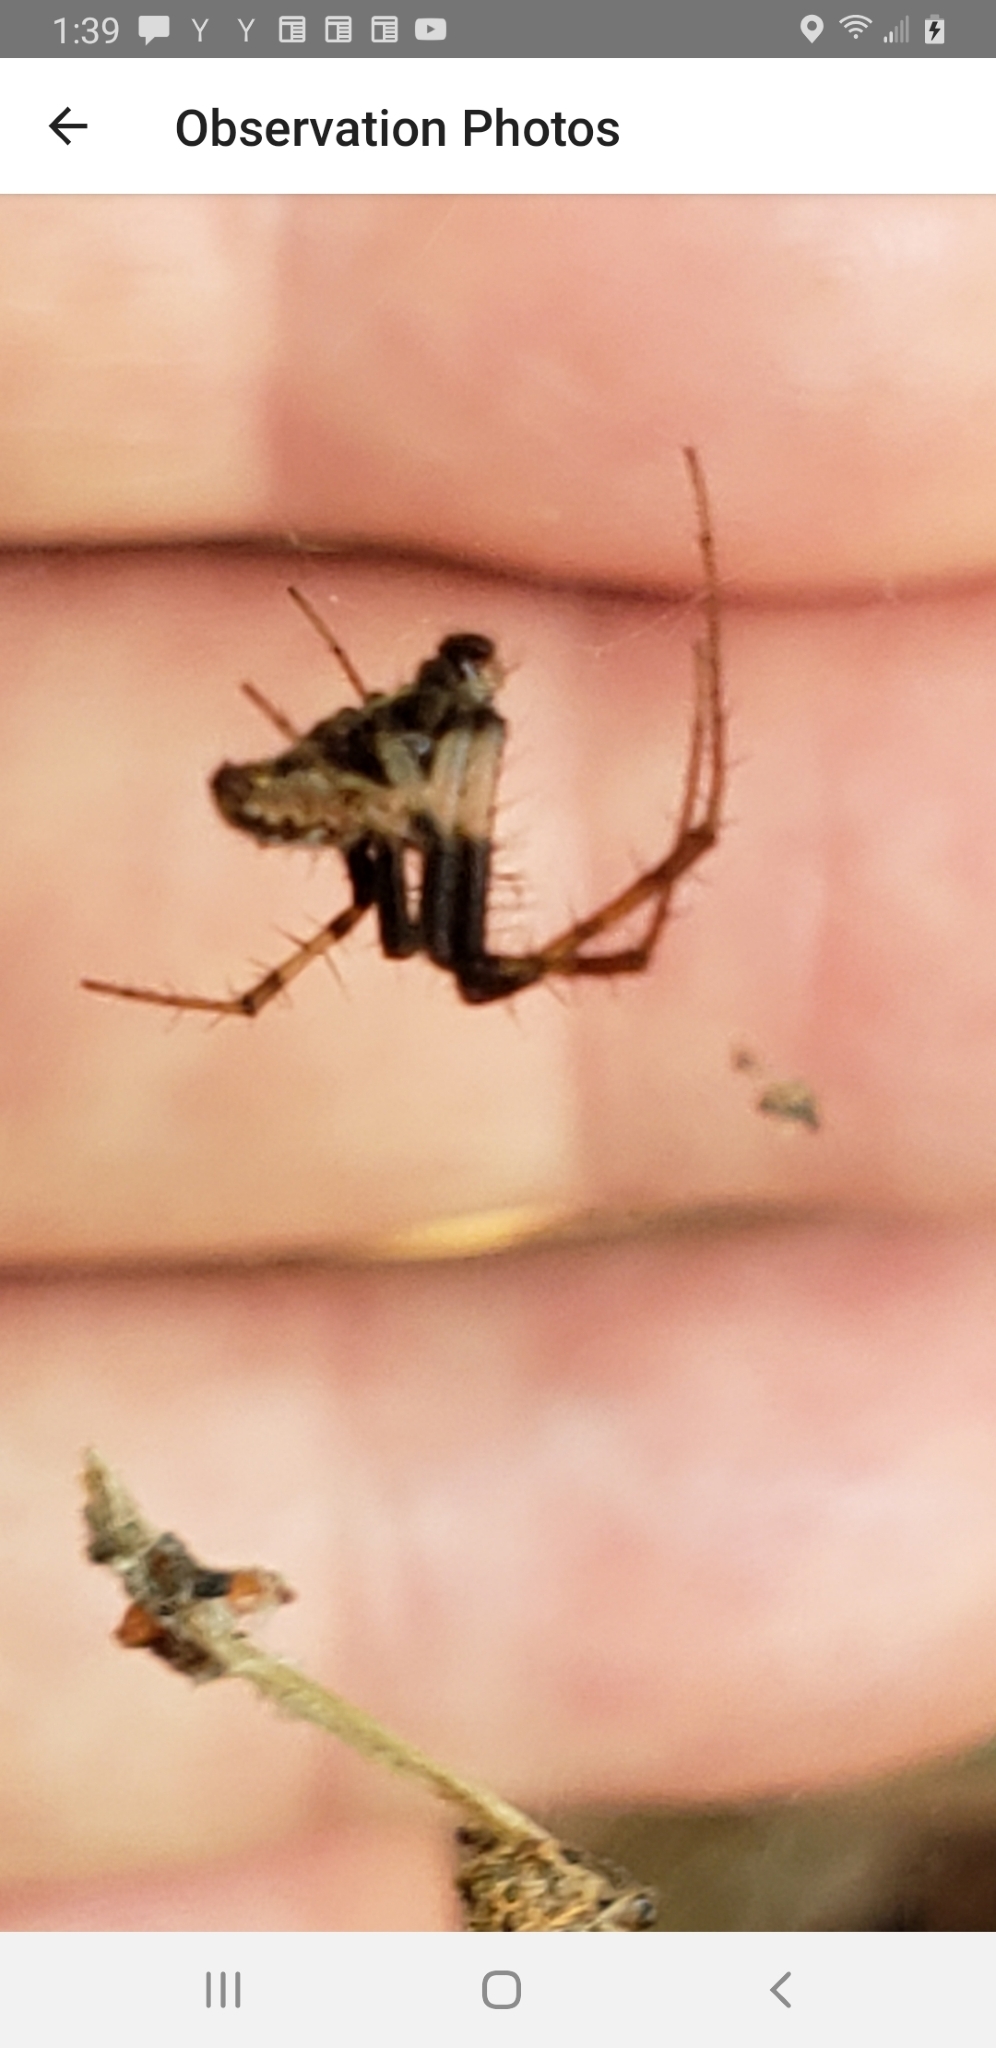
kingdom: Animalia
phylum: Arthropoda
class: Arachnida
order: Araneae
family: Araneidae
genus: Metepeira
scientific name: Metepeira labyrinthea
